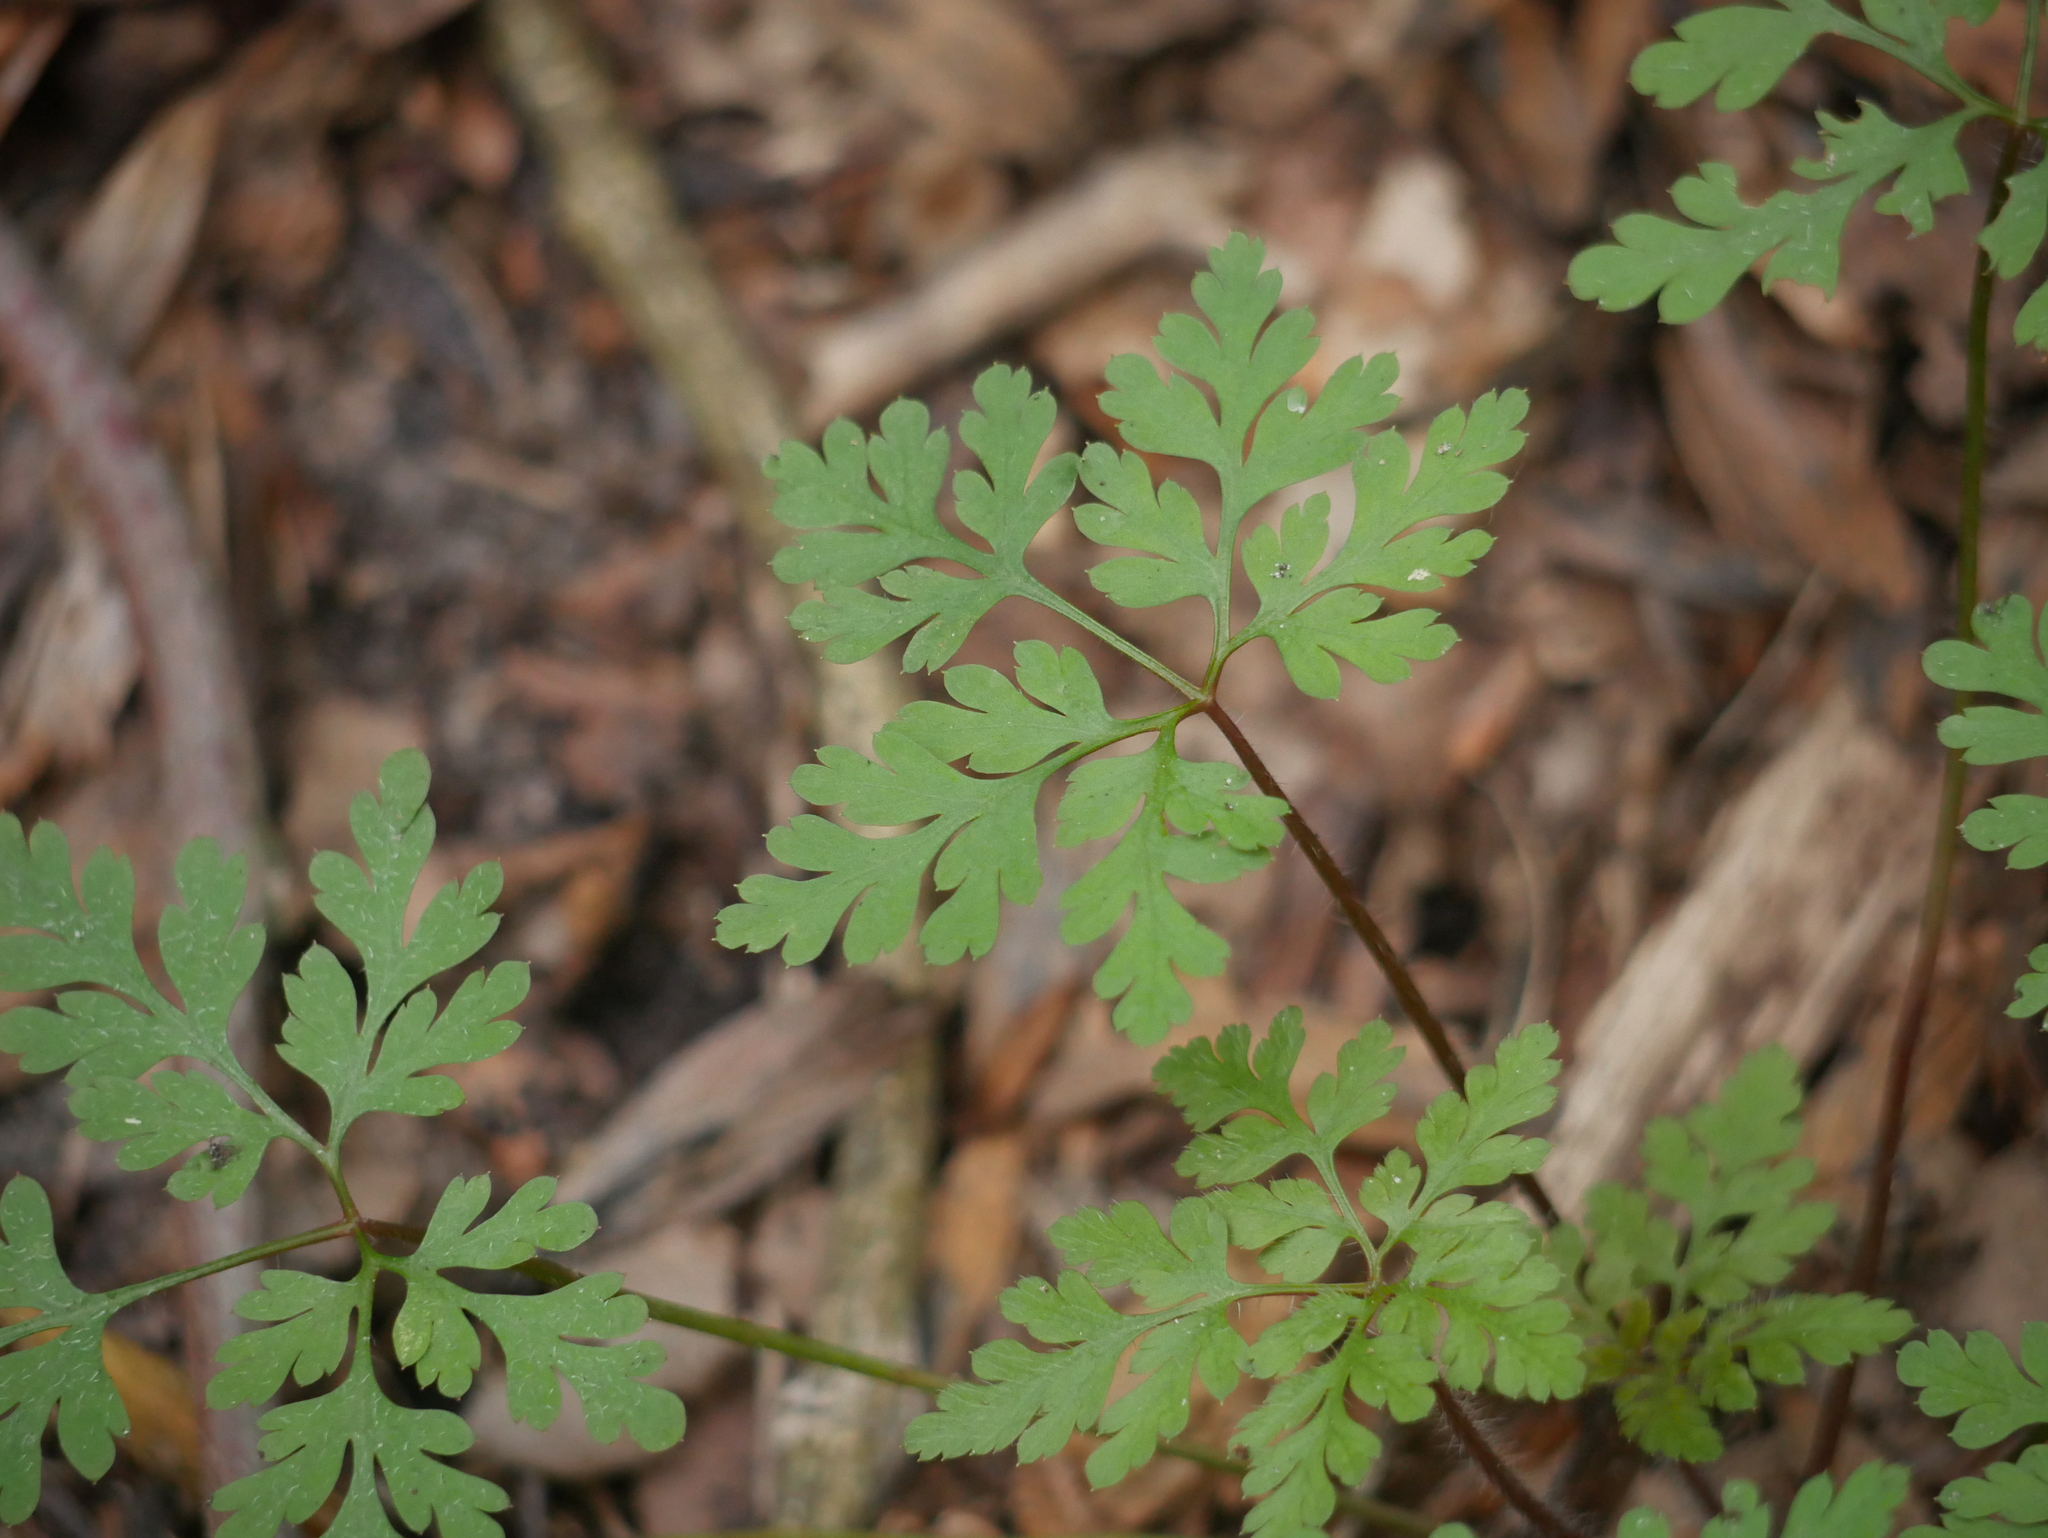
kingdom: Plantae
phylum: Tracheophyta
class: Magnoliopsida
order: Geraniales
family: Geraniaceae
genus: Geranium
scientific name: Geranium robertianum
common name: Herb-robert
